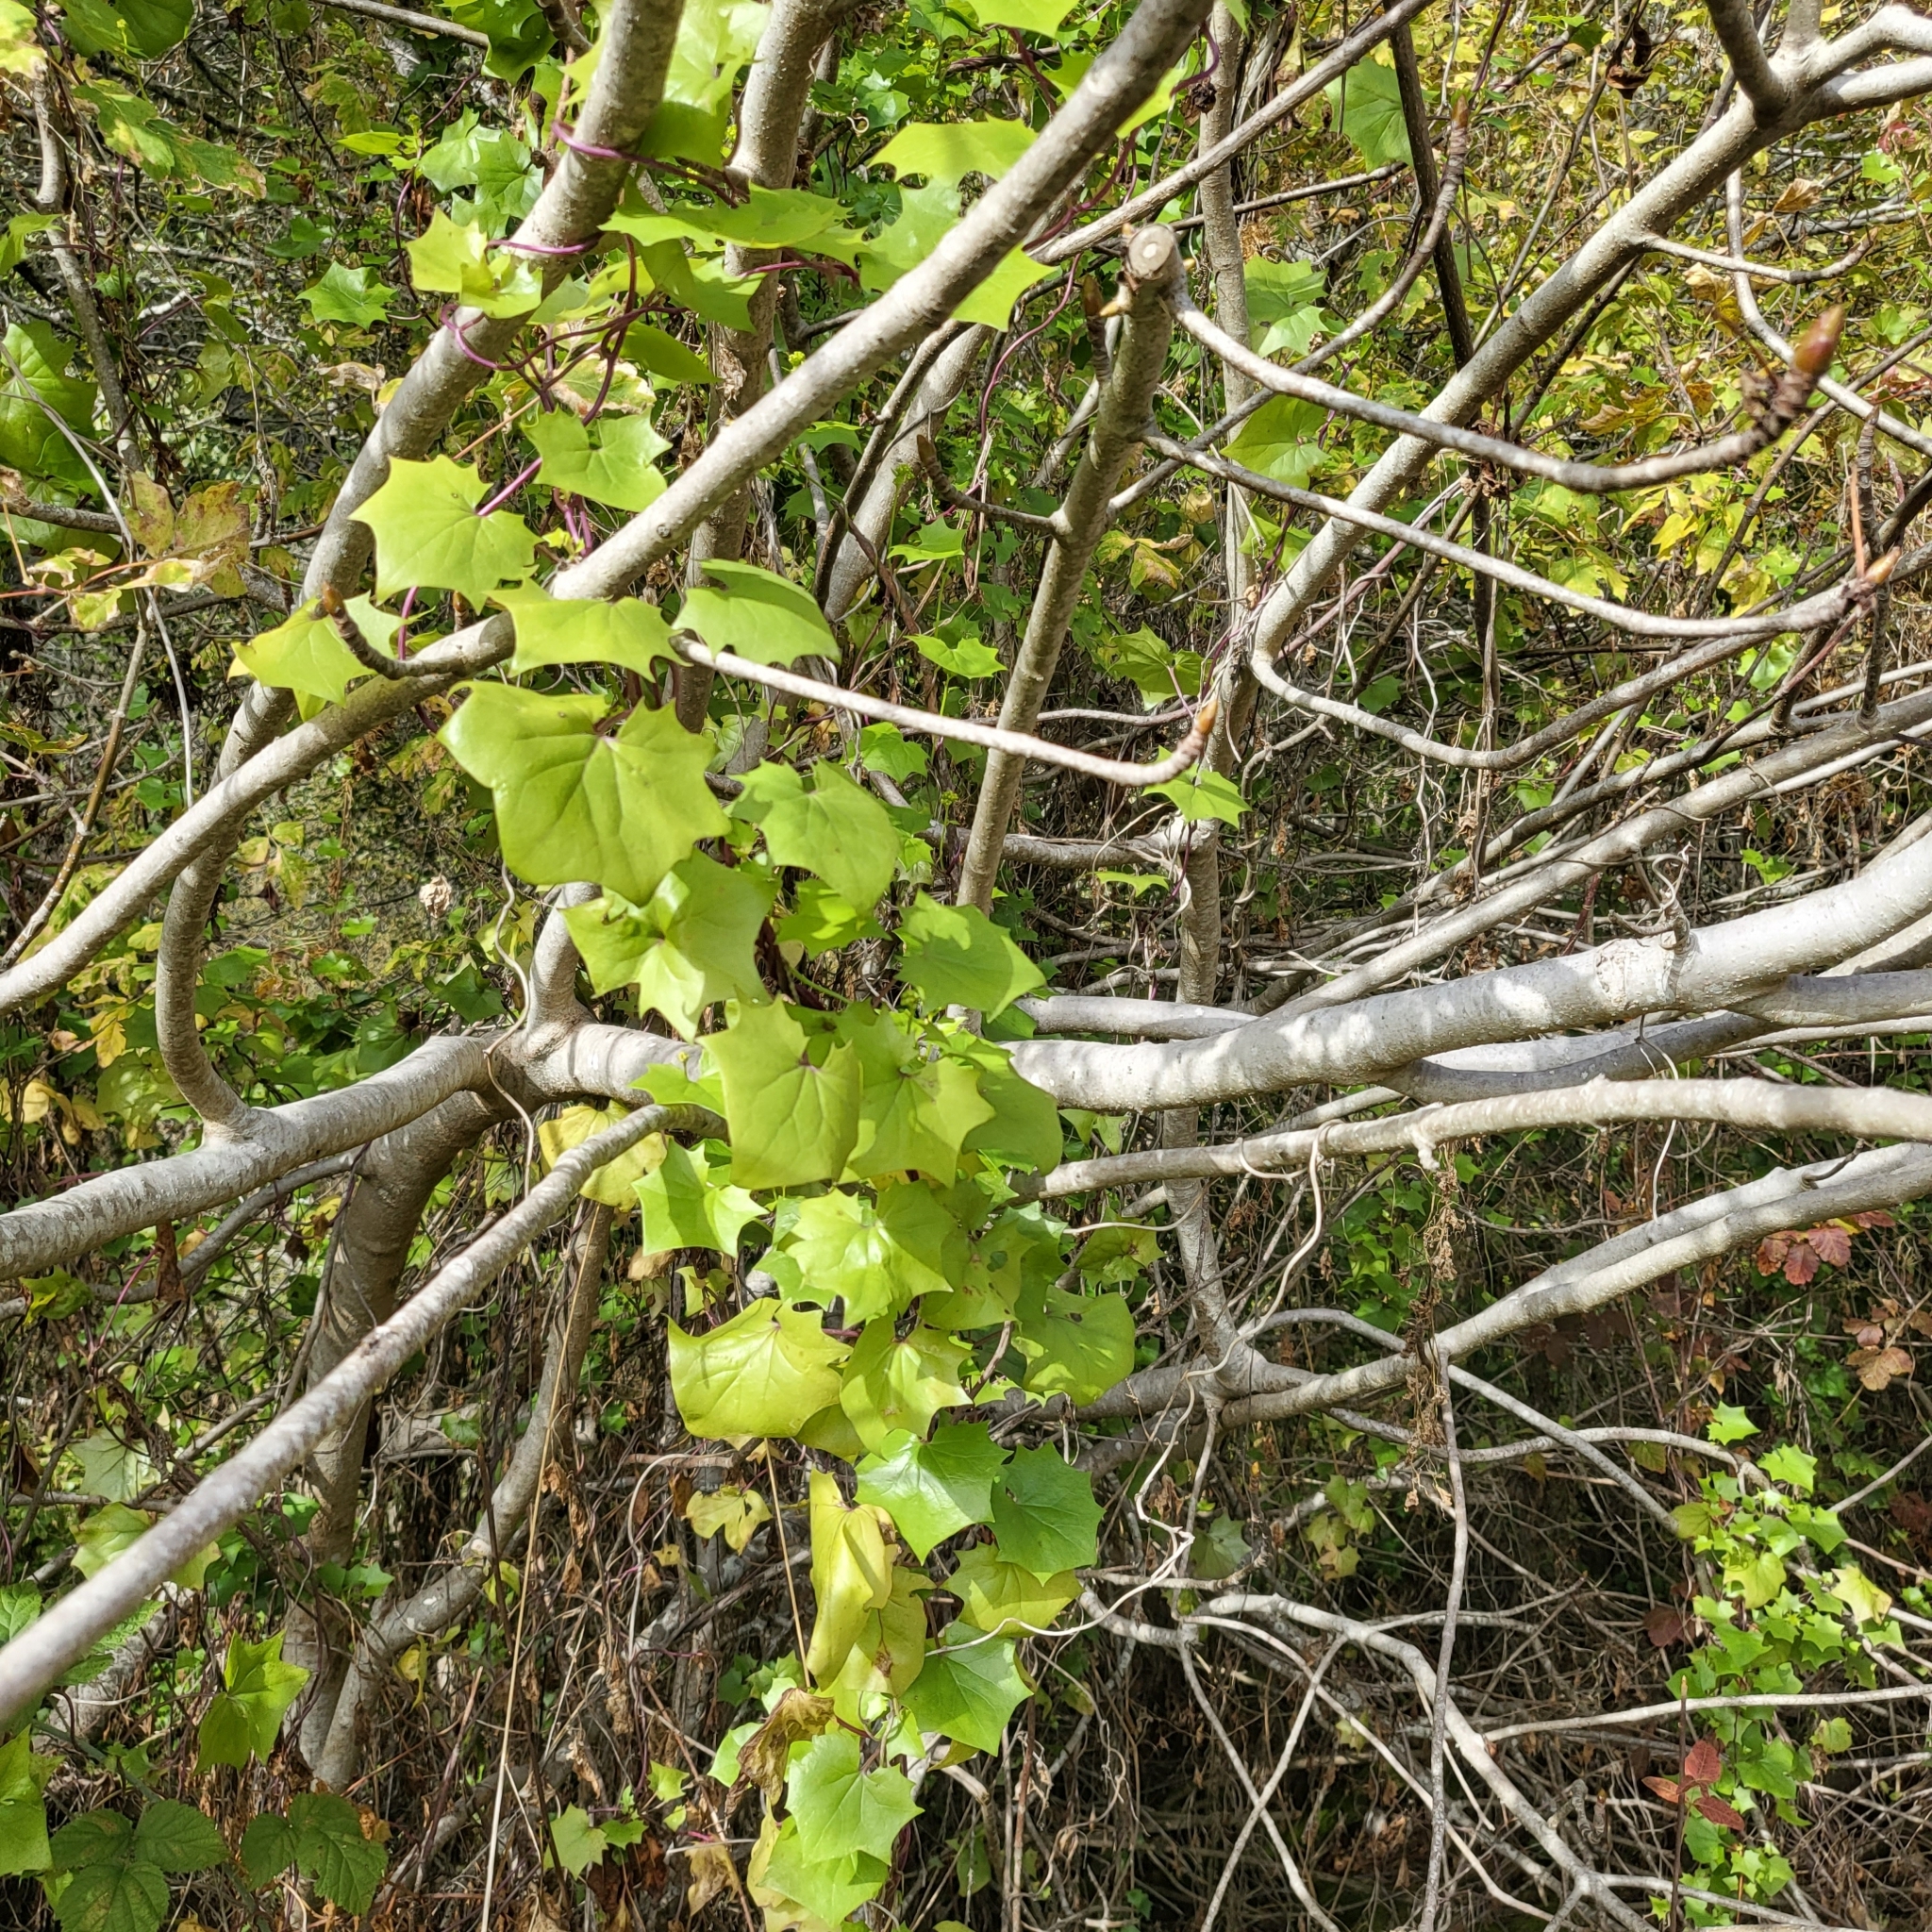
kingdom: Plantae
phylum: Tracheophyta
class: Magnoliopsida
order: Asterales
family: Asteraceae
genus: Delairea
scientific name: Delairea odorata
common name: Cape-ivy
